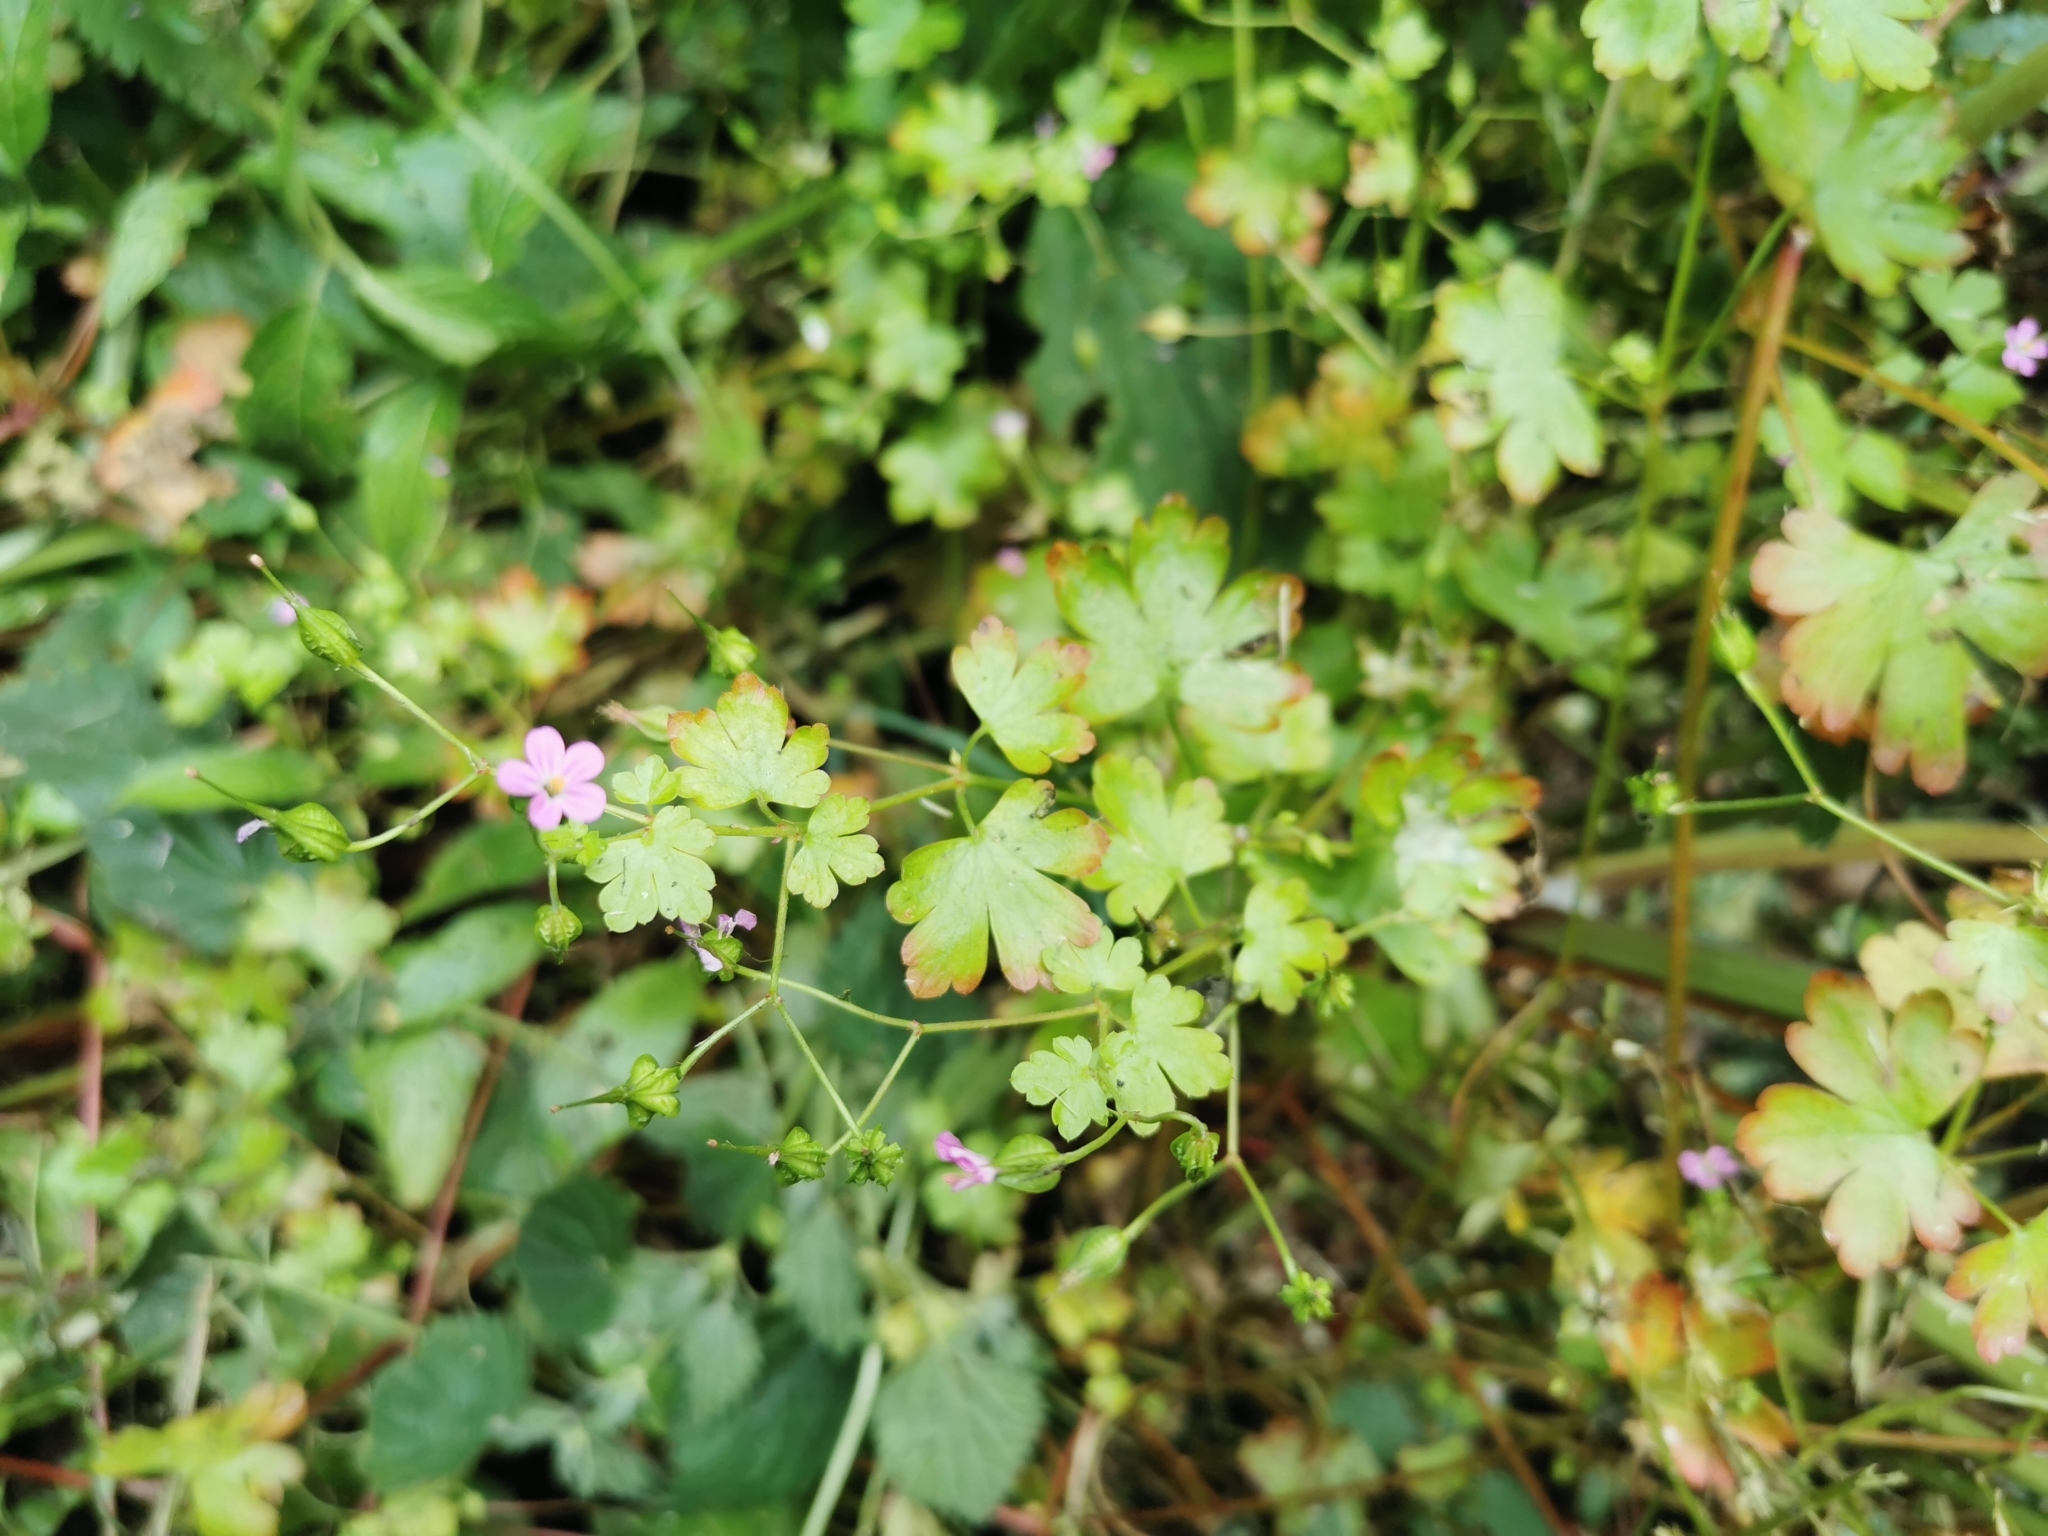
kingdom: Plantae
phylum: Tracheophyta
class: Magnoliopsida
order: Geraniales
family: Geraniaceae
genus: Geranium
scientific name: Geranium lucidum
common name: Shining crane's-bill
